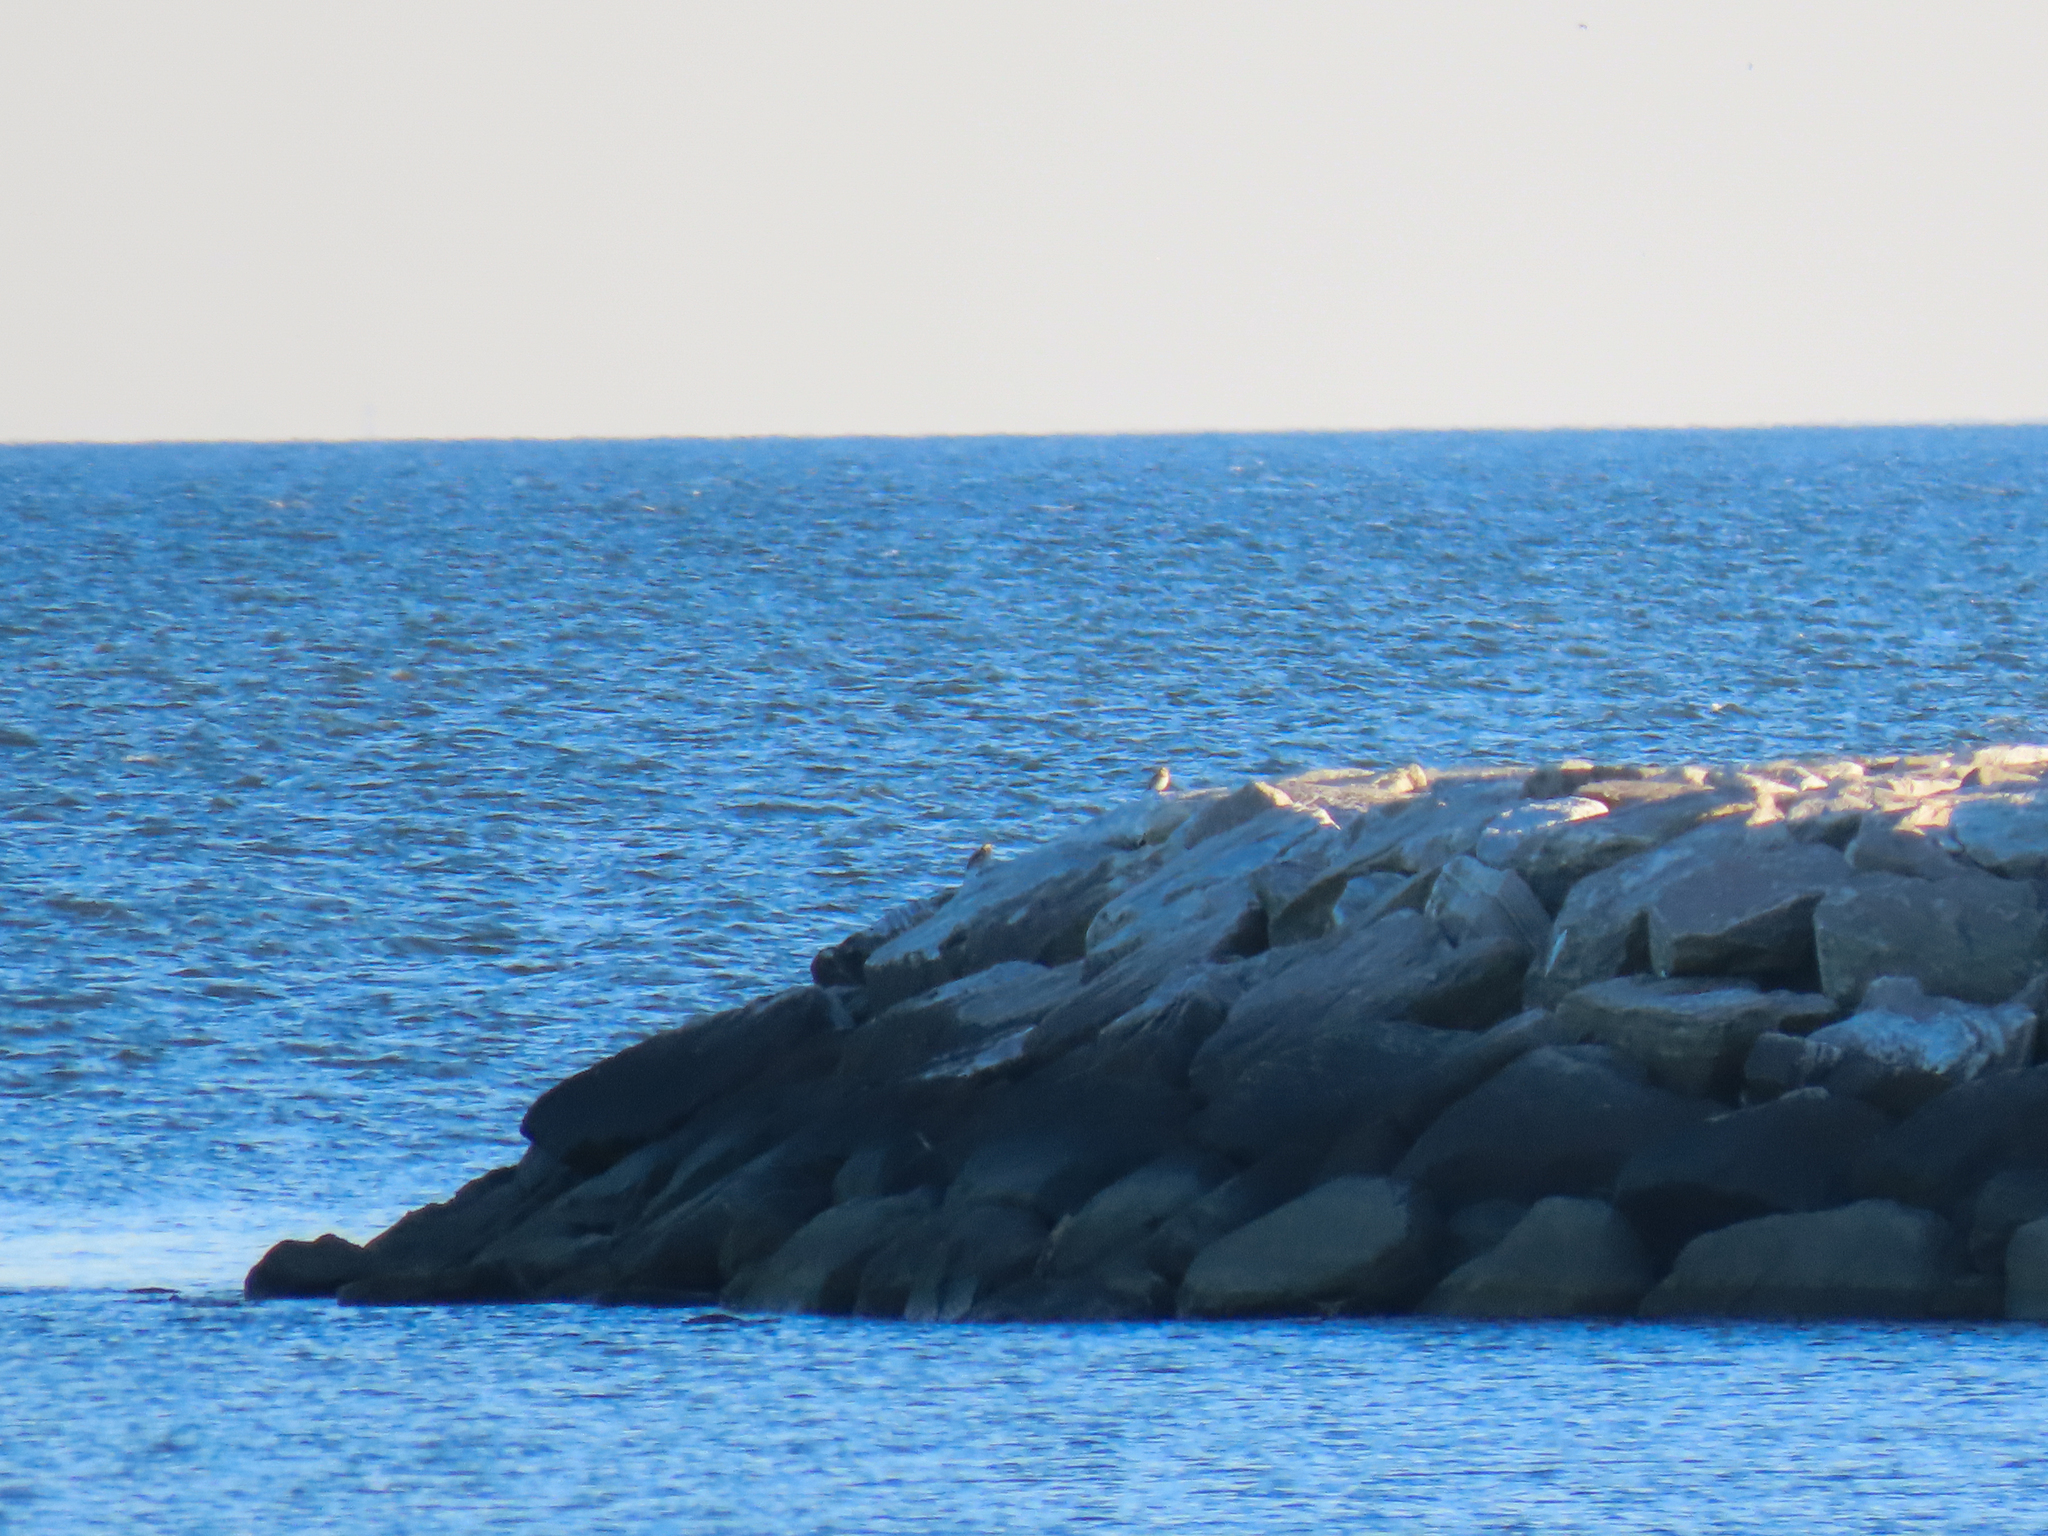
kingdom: Animalia
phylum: Chordata
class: Aves
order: Passeriformes
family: Calcariidae
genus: Plectrophenax
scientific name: Plectrophenax nivalis
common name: Snow bunting
